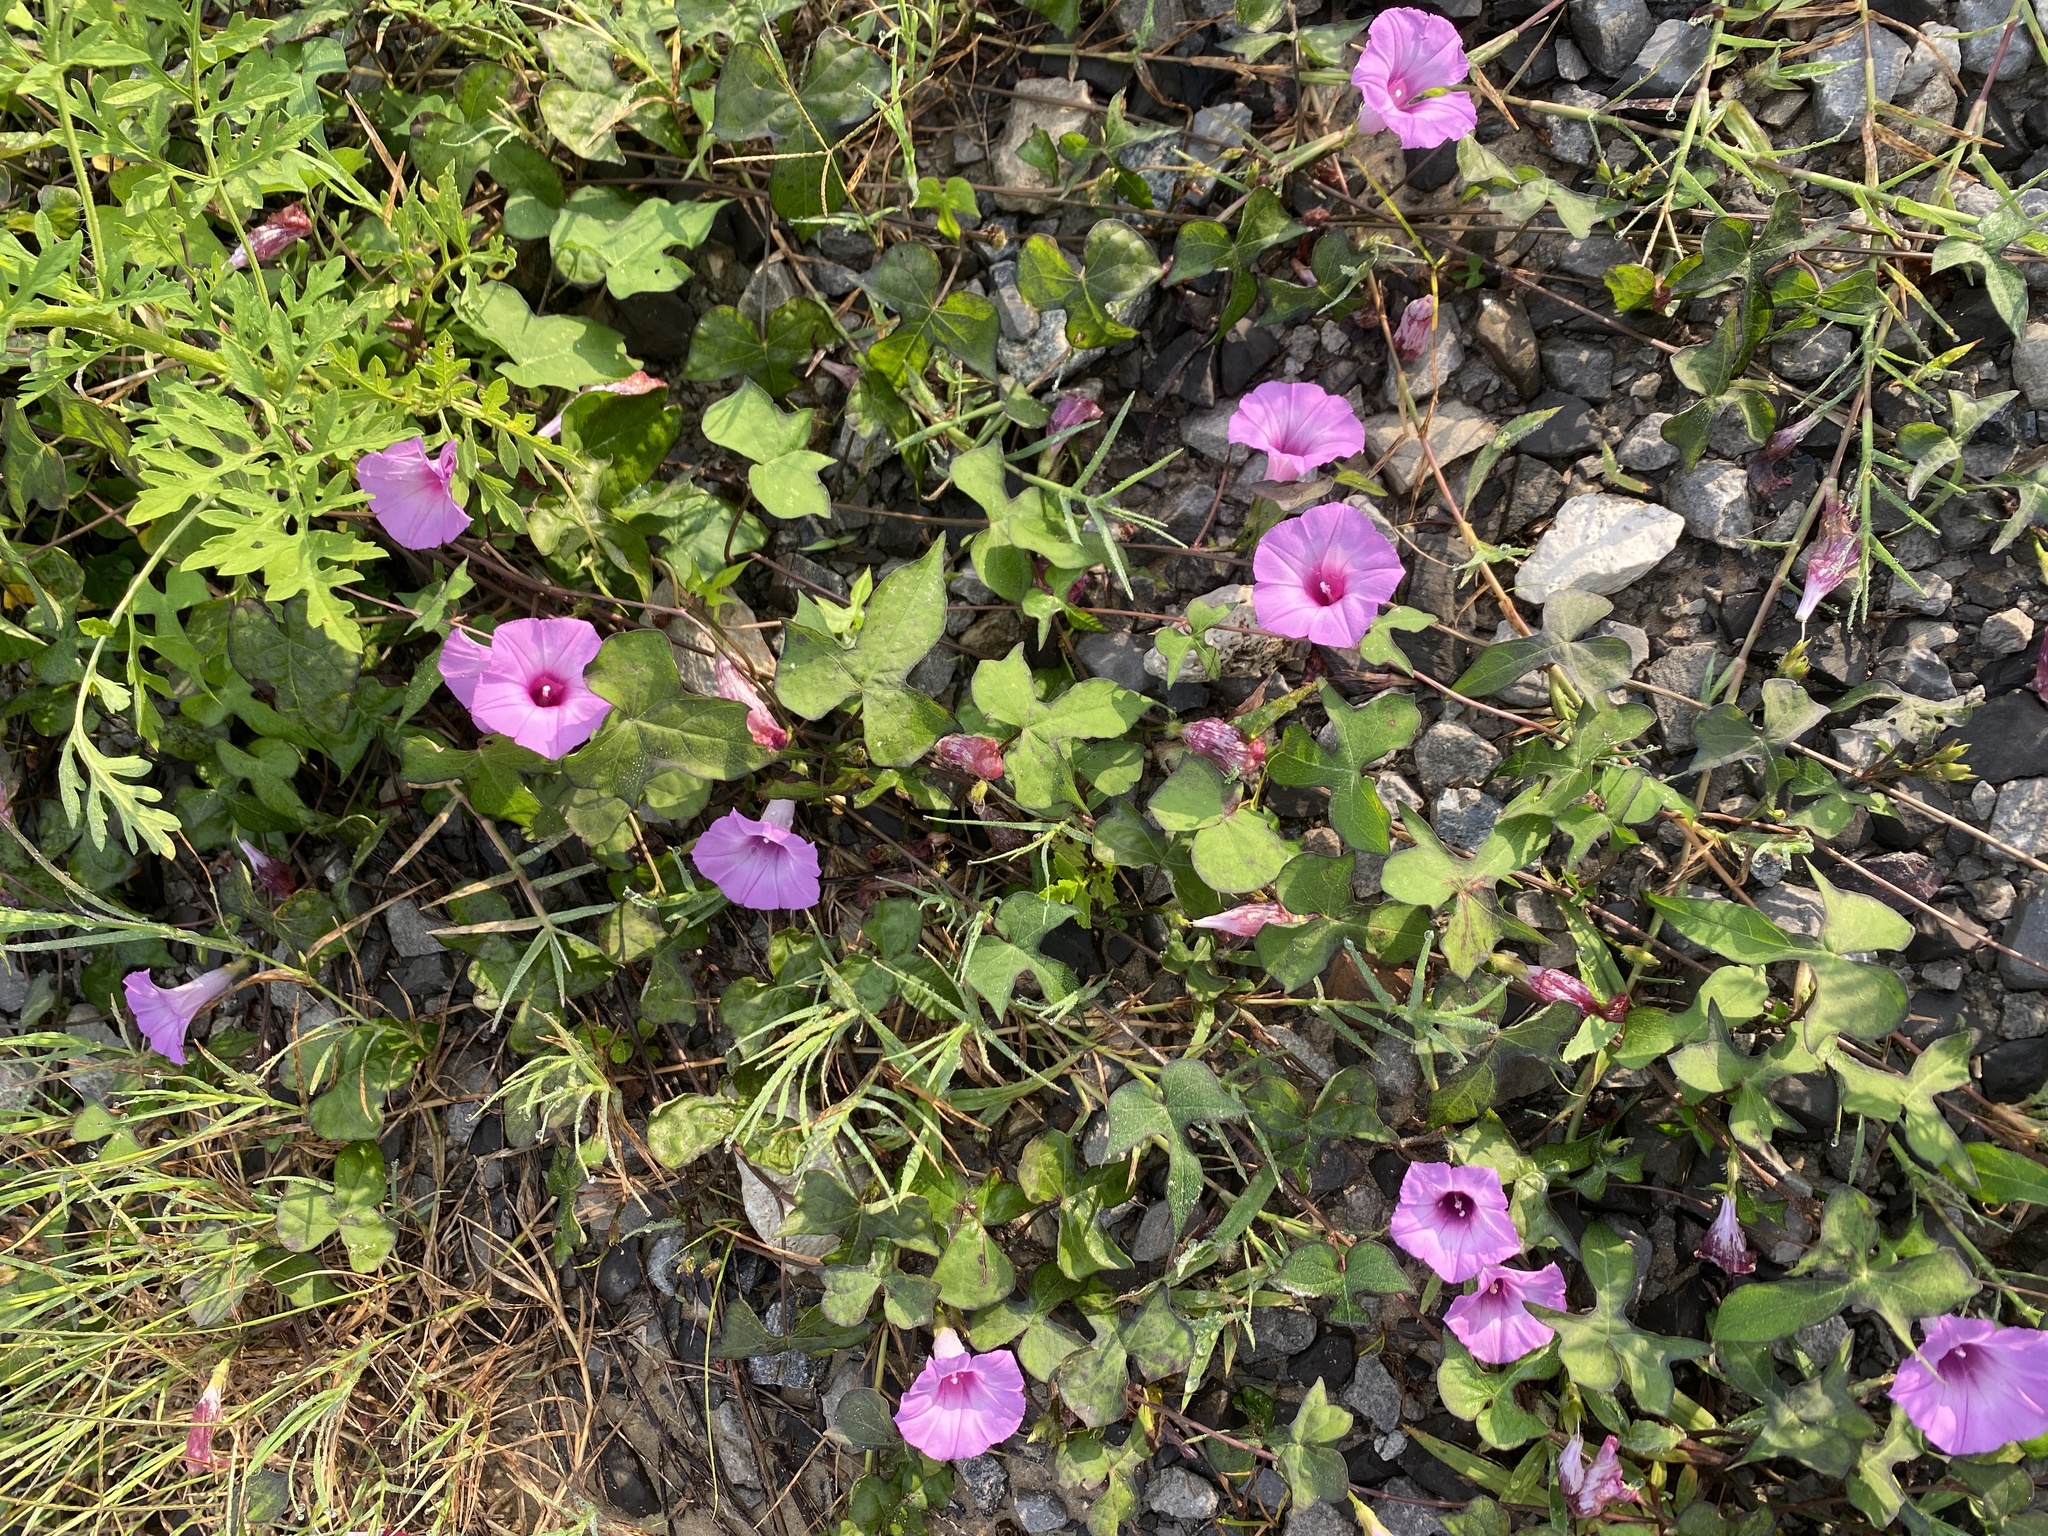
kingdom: Plantae
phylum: Tracheophyta
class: Magnoliopsida
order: Solanales
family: Convolvulaceae
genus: Ipomoea
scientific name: Ipomoea cordatotriloba
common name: Cotton morning glory
